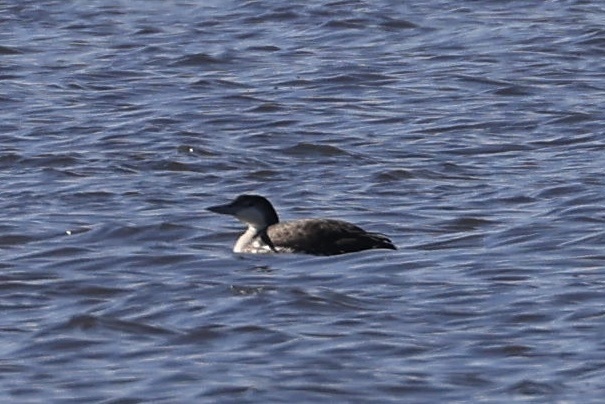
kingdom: Animalia
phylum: Chordata
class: Aves
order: Gaviiformes
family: Gaviidae
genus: Gavia
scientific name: Gavia immer
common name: Common loon
